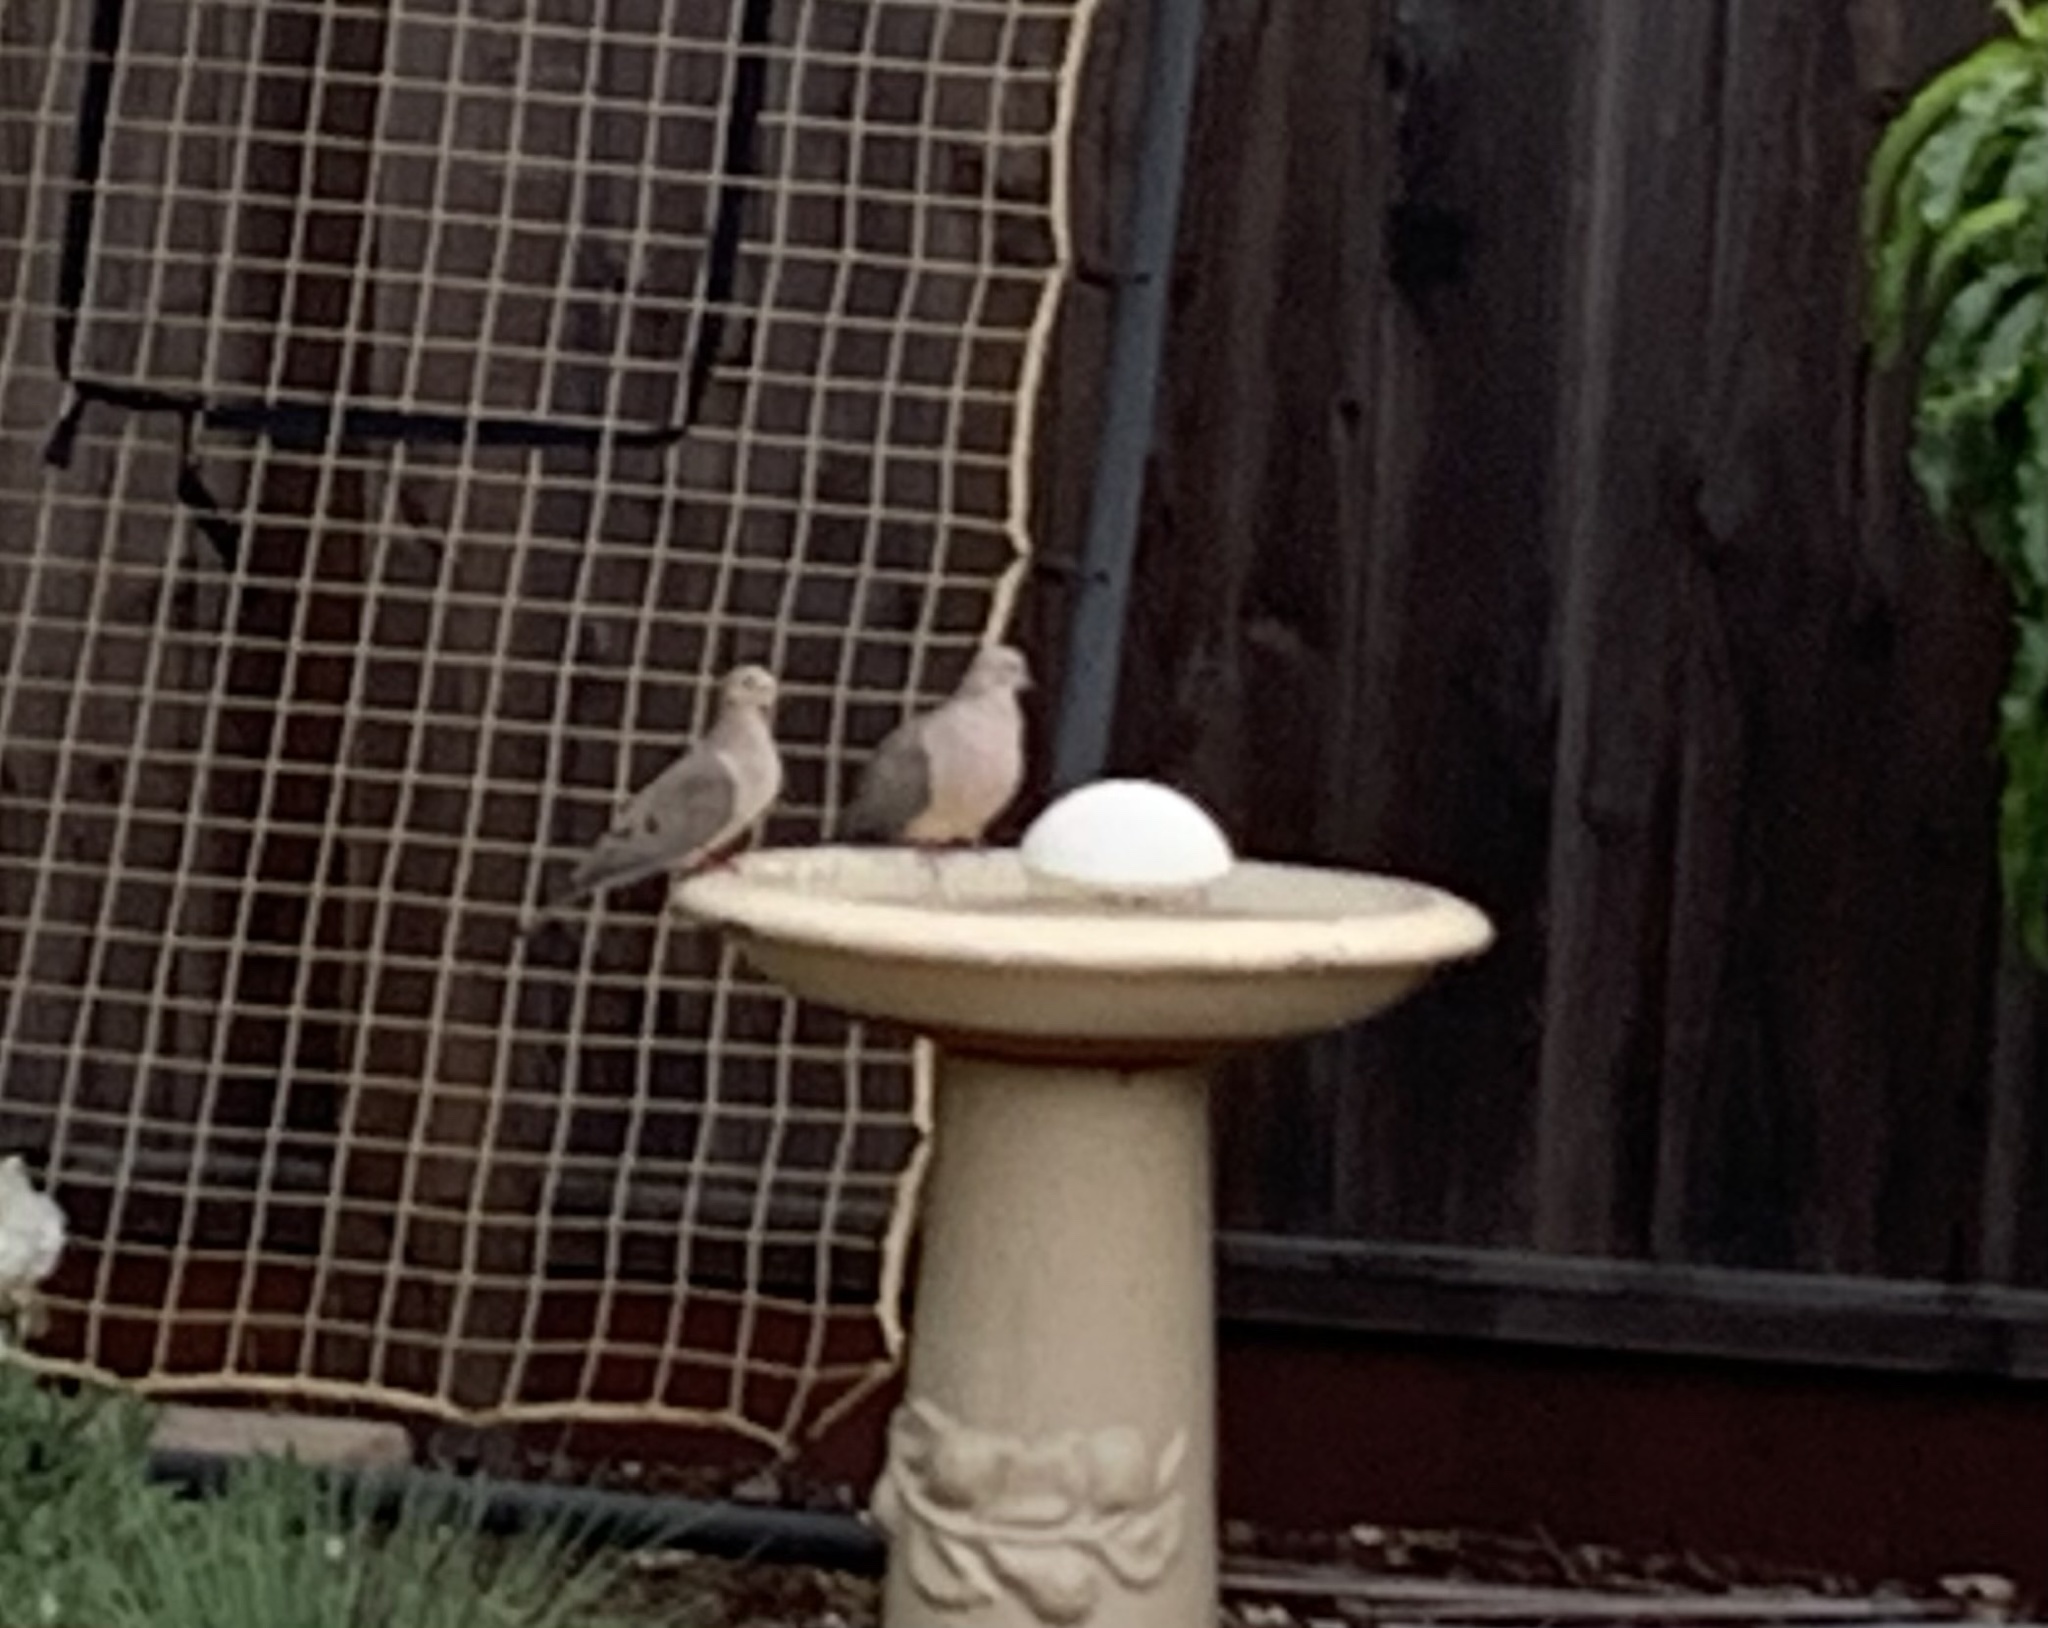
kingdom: Animalia
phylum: Chordata
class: Aves
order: Columbiformes
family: Columbidae
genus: Zenaida
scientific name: Zenaida macroura
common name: Mourning dove
